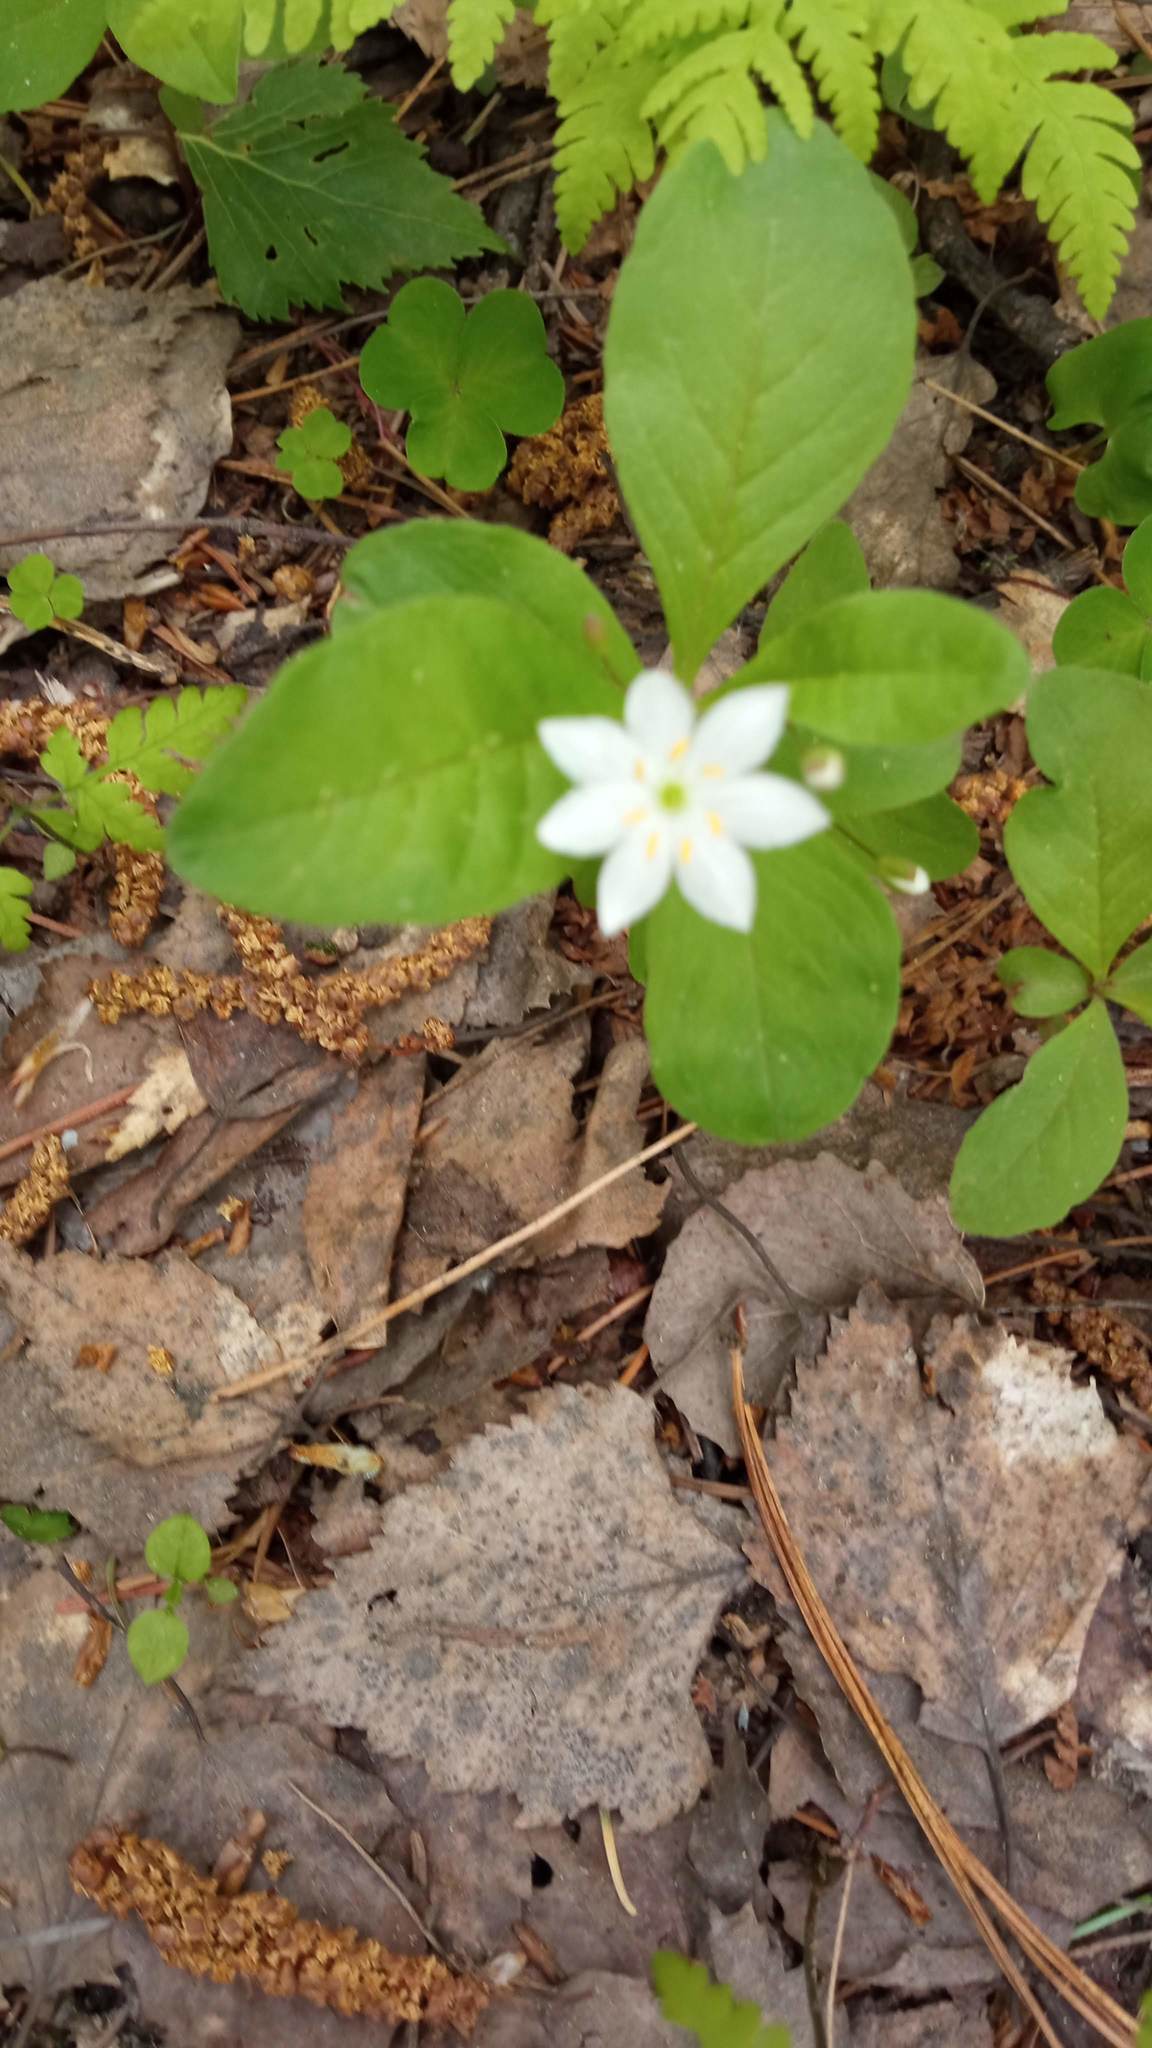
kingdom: Plantae
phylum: Tracheophyta
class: Magnoliopsida
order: Ericales
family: Primulaceae
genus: Lysimachia
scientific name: Lysimachia europaea
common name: Arctic starflower
